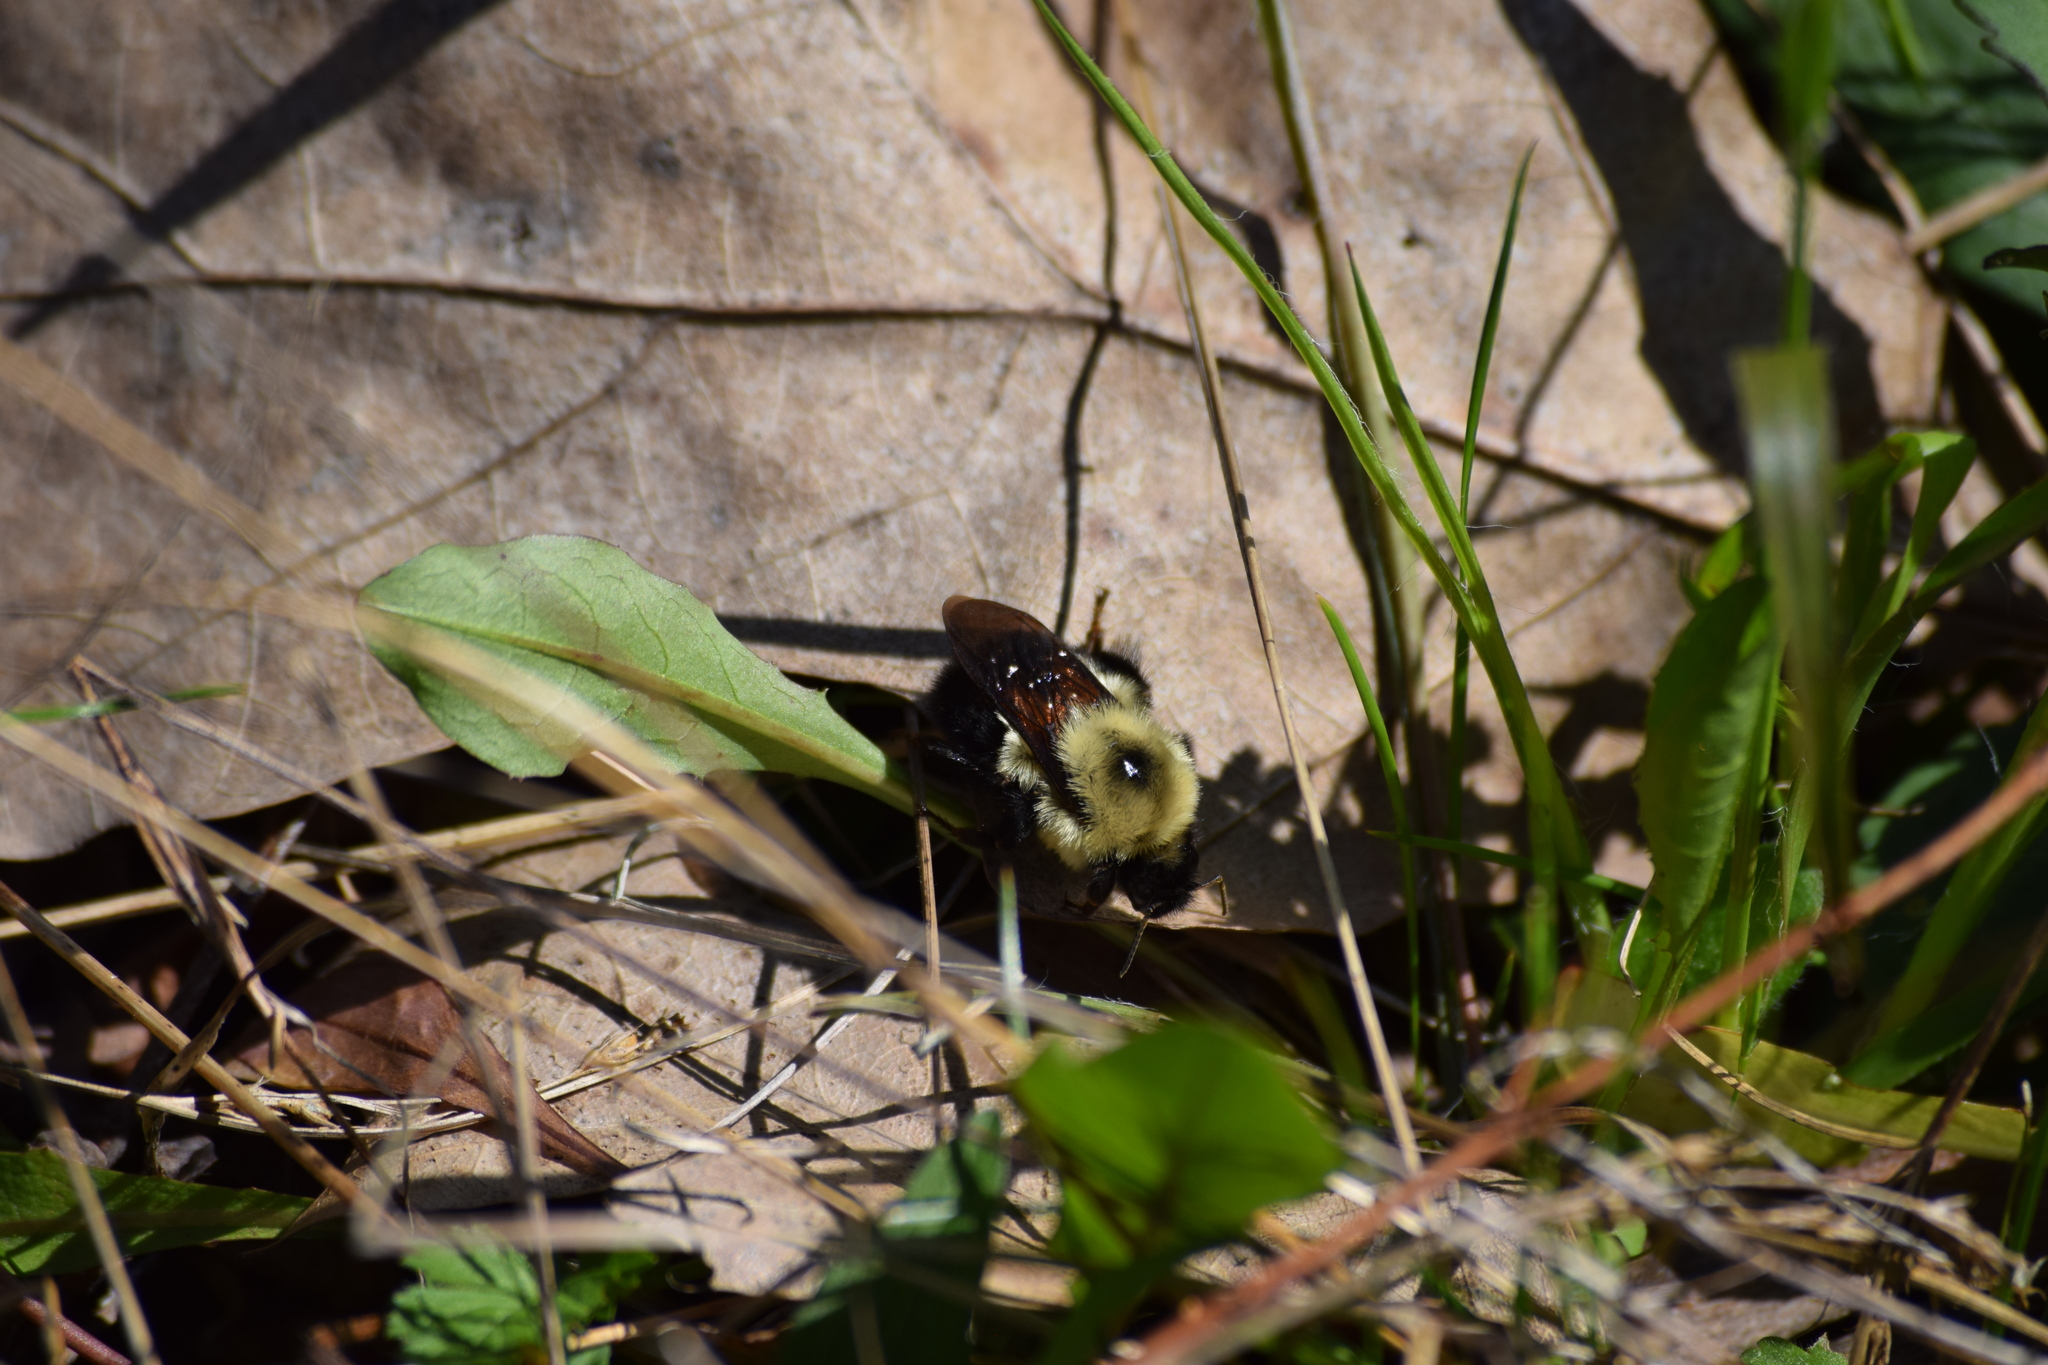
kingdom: Animalia
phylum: Arthropoda
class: Insecta
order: Hymenoptera
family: Apidae
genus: Bombus
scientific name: Bombus bimaculatus
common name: Two-spotted bumble bee
